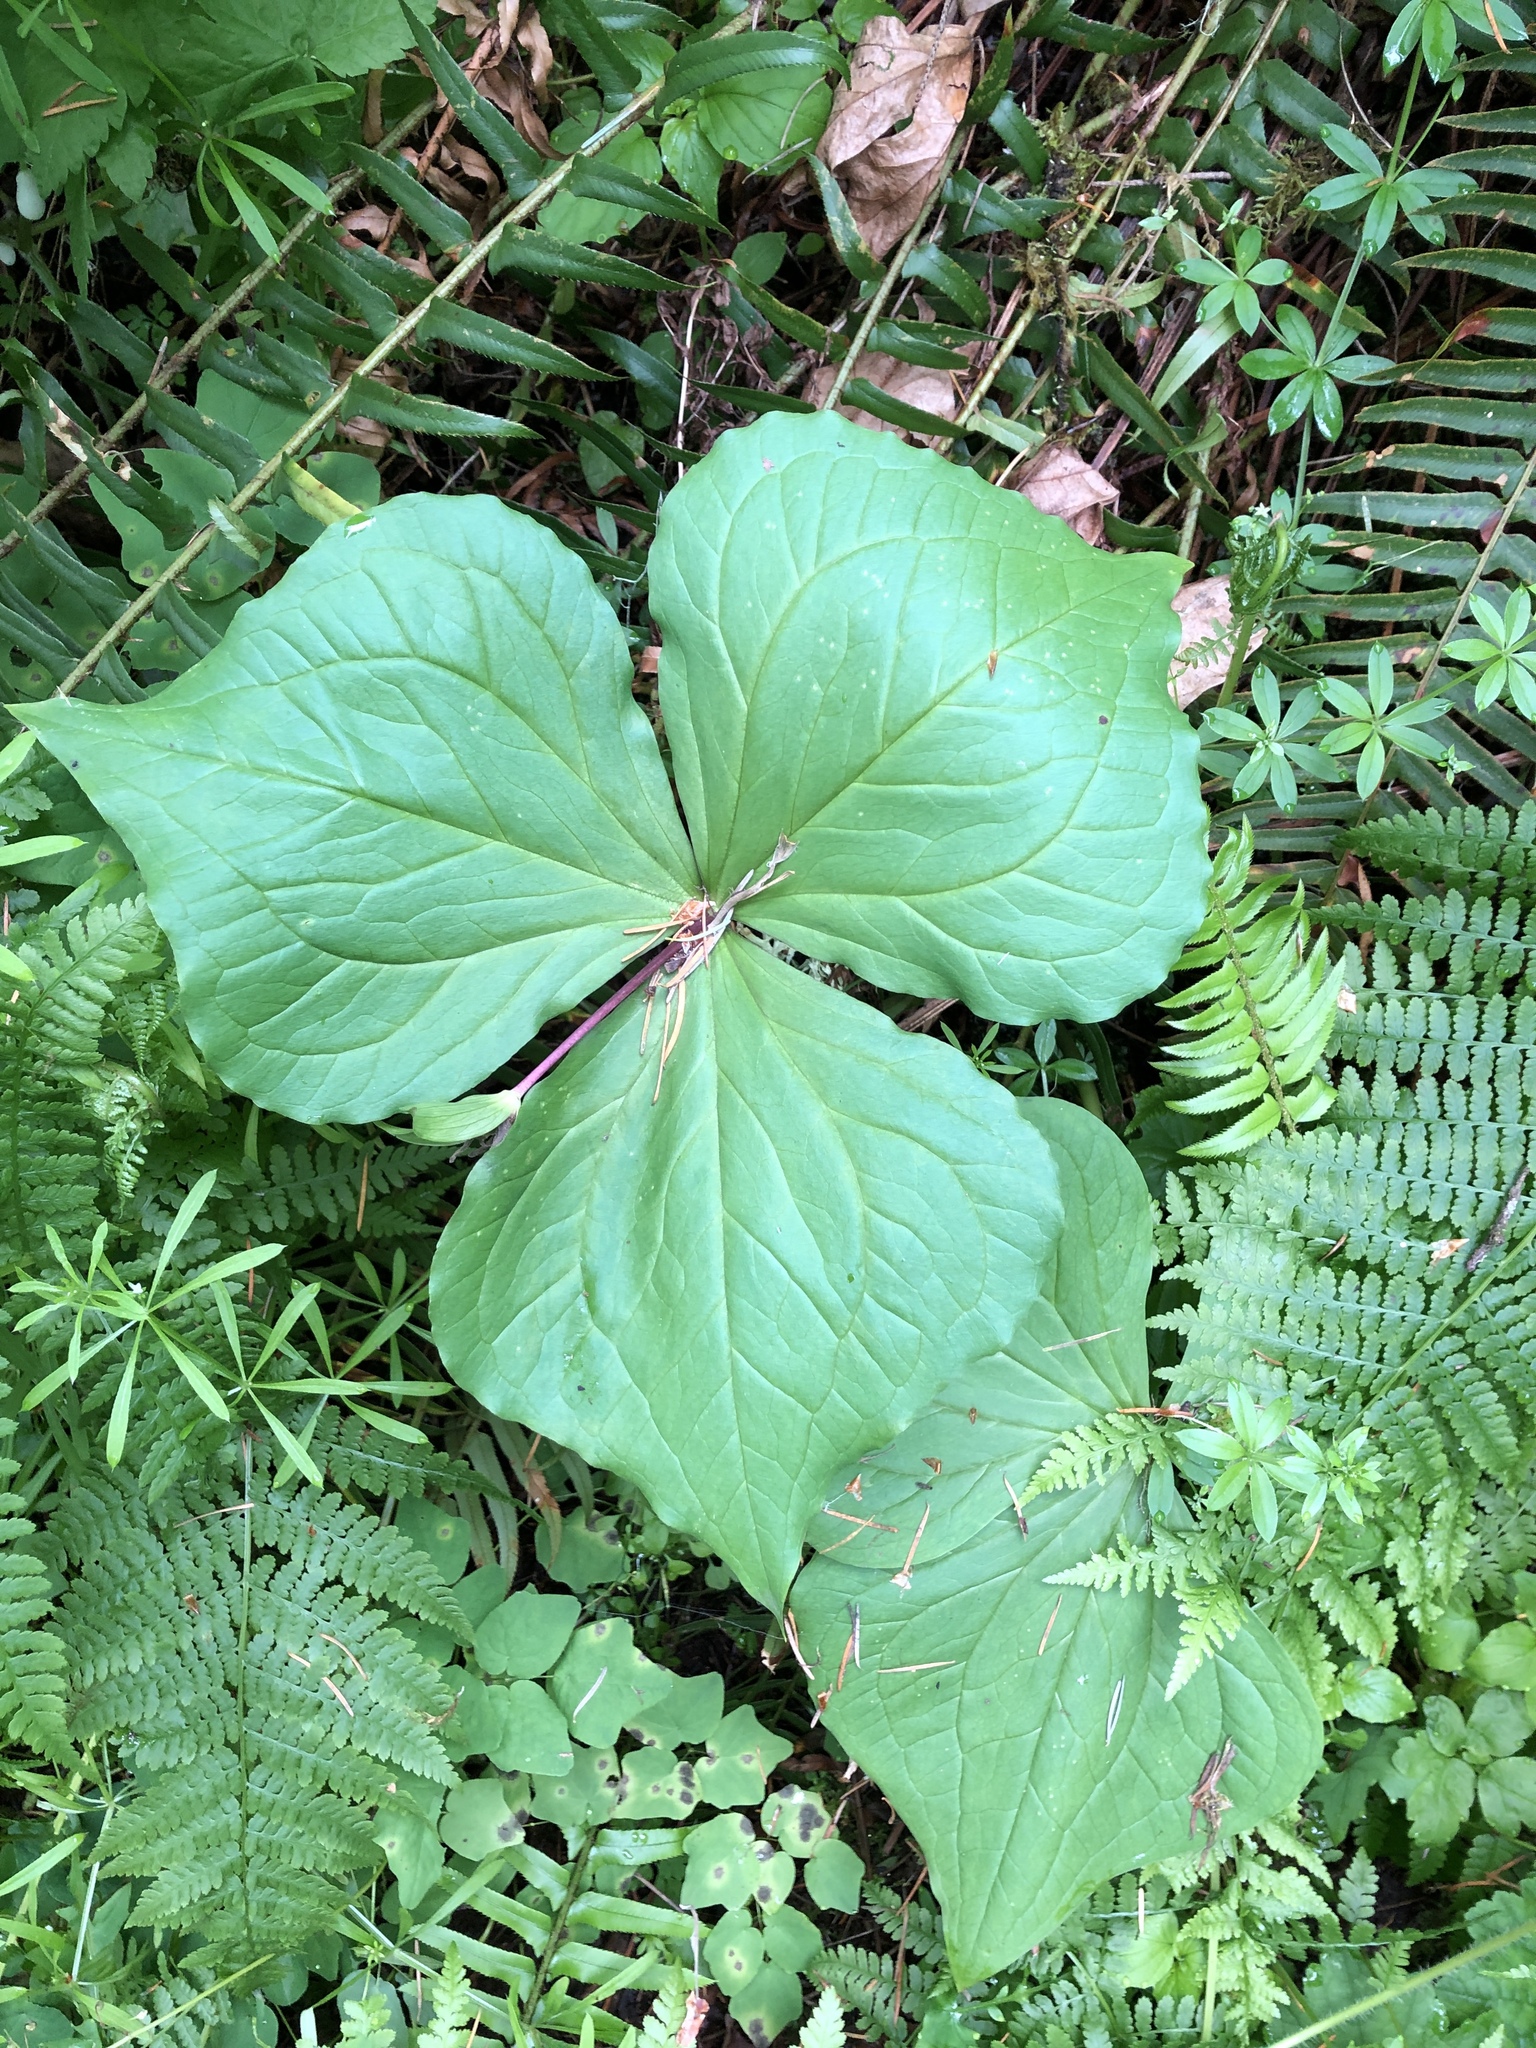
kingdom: Plantae
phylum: Tracheophyta
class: Liliopsida
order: Liliales
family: Melanthiaceae
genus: Trillium
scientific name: Trillium ovatum
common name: Pacific trillium
